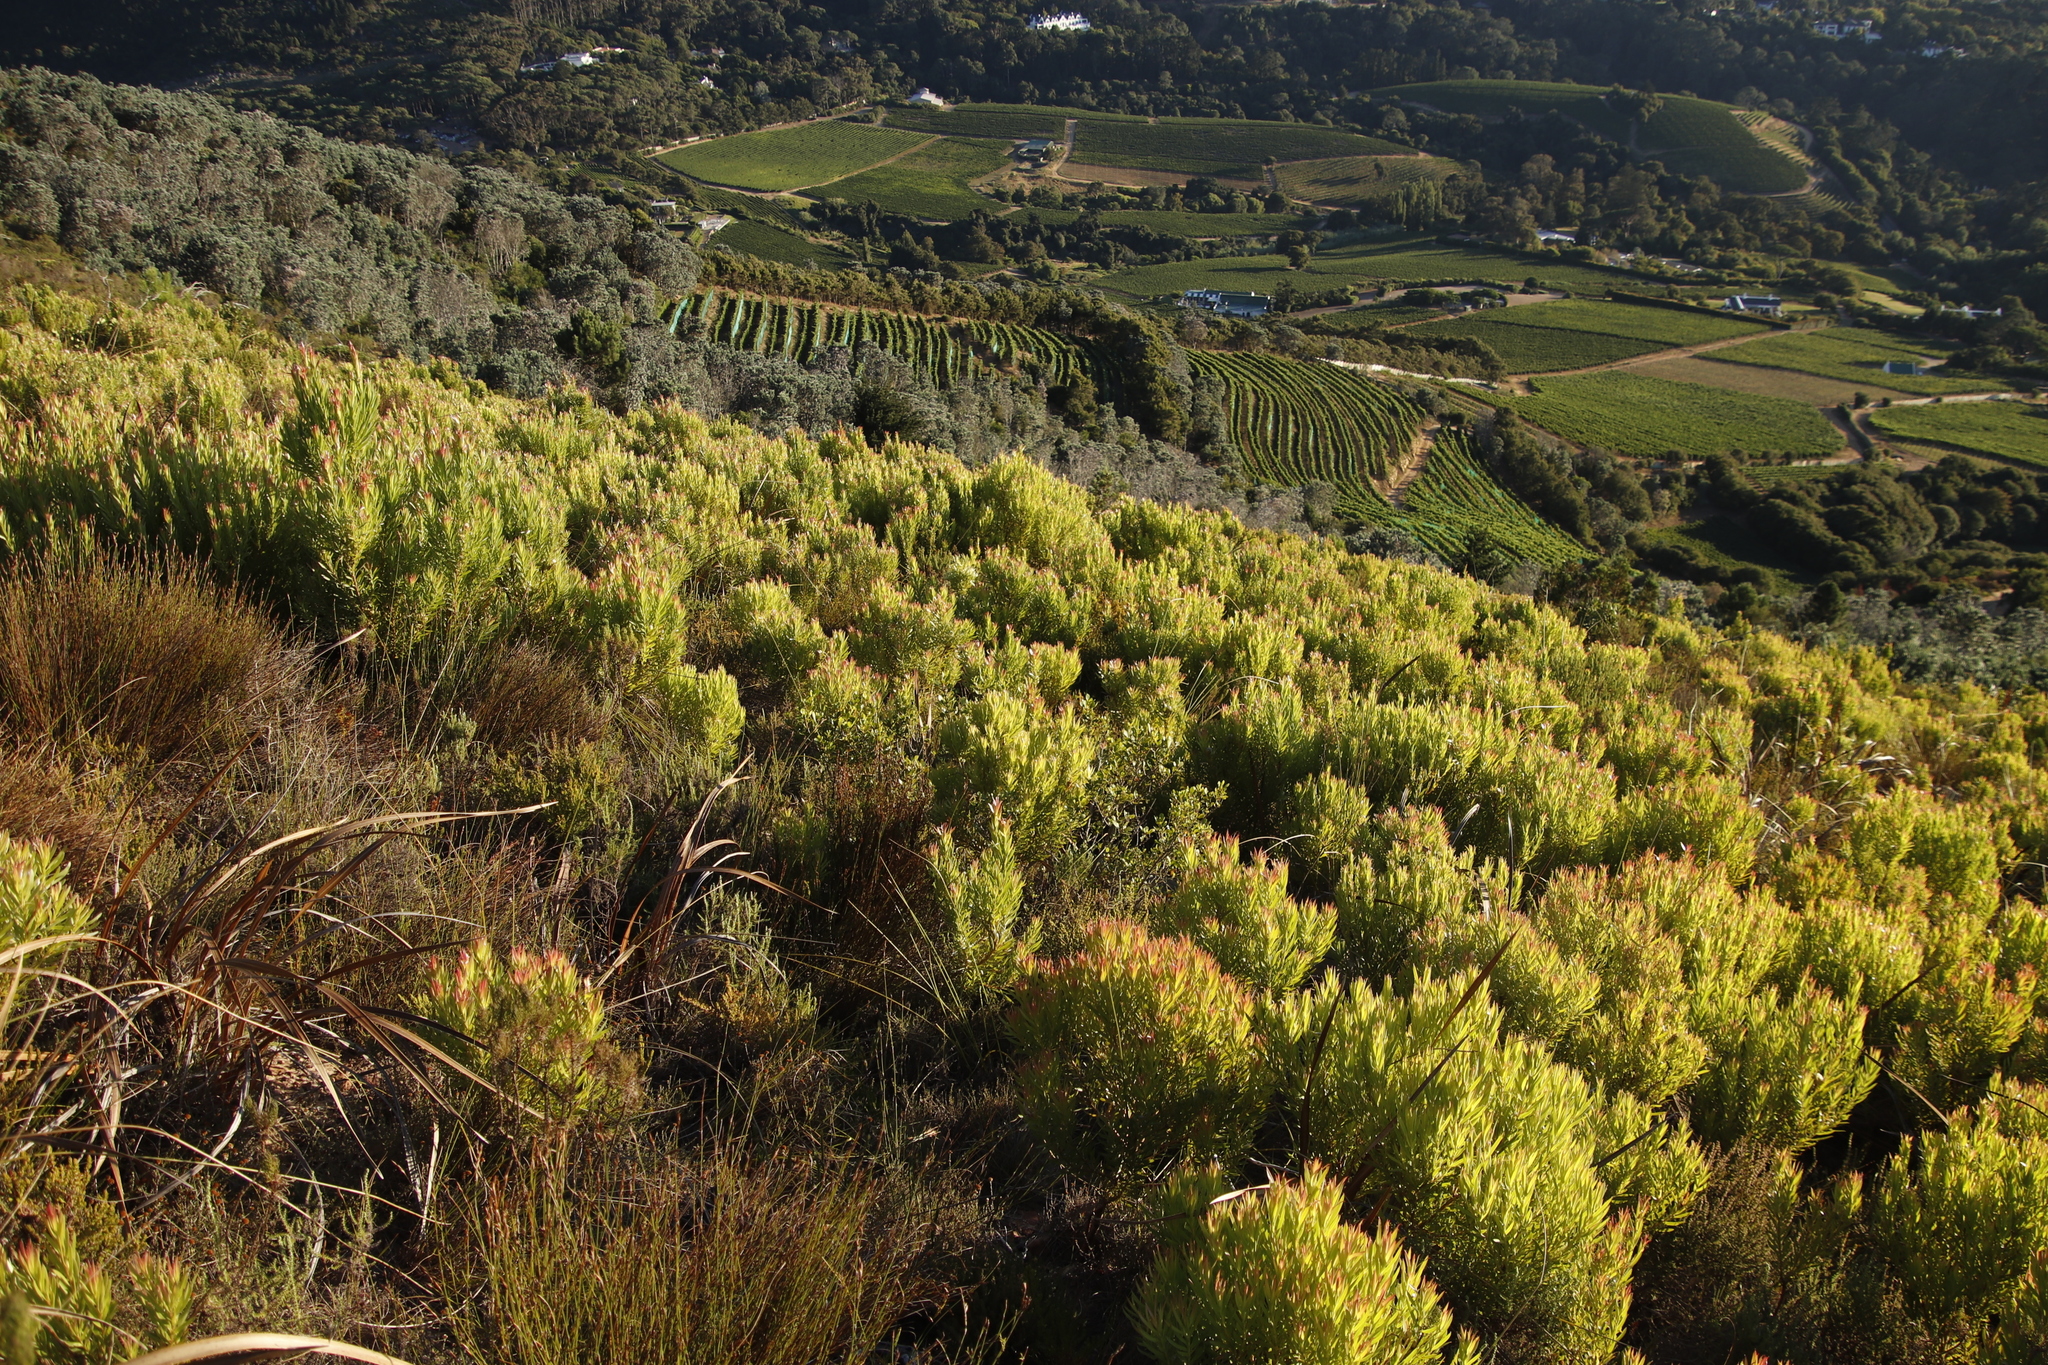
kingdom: Plantae
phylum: Tracheophyta
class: Magnoliopsida
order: Proteales
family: Proteaceae
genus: Leucadendron
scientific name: Leucadendron xanthoconus
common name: Sickle-leaf conebush
